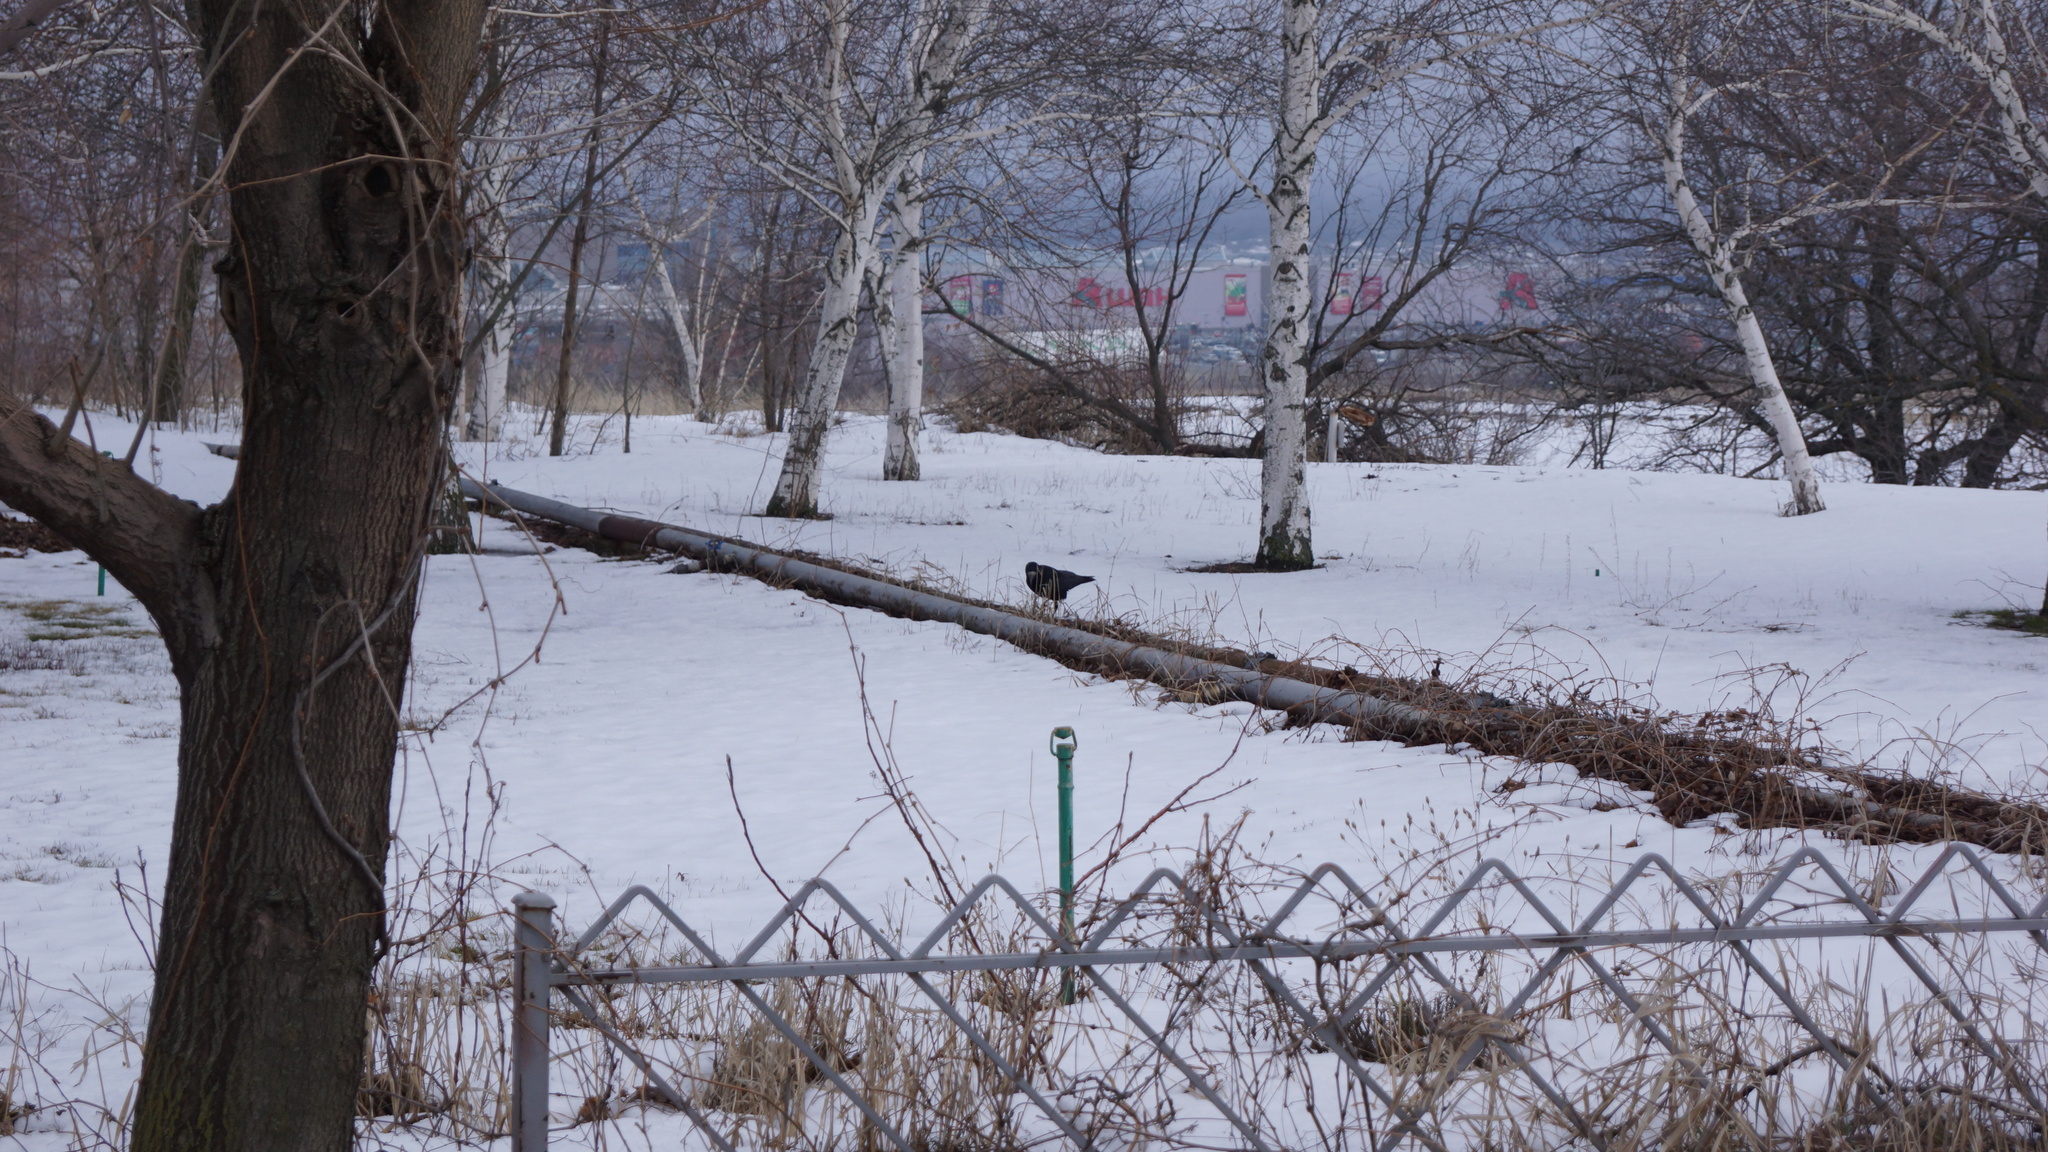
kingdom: Animalia
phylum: Chordata
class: Aves
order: Passeriformes
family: Corvidae
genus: Corvus
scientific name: Corvus frugilegus
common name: Rook
